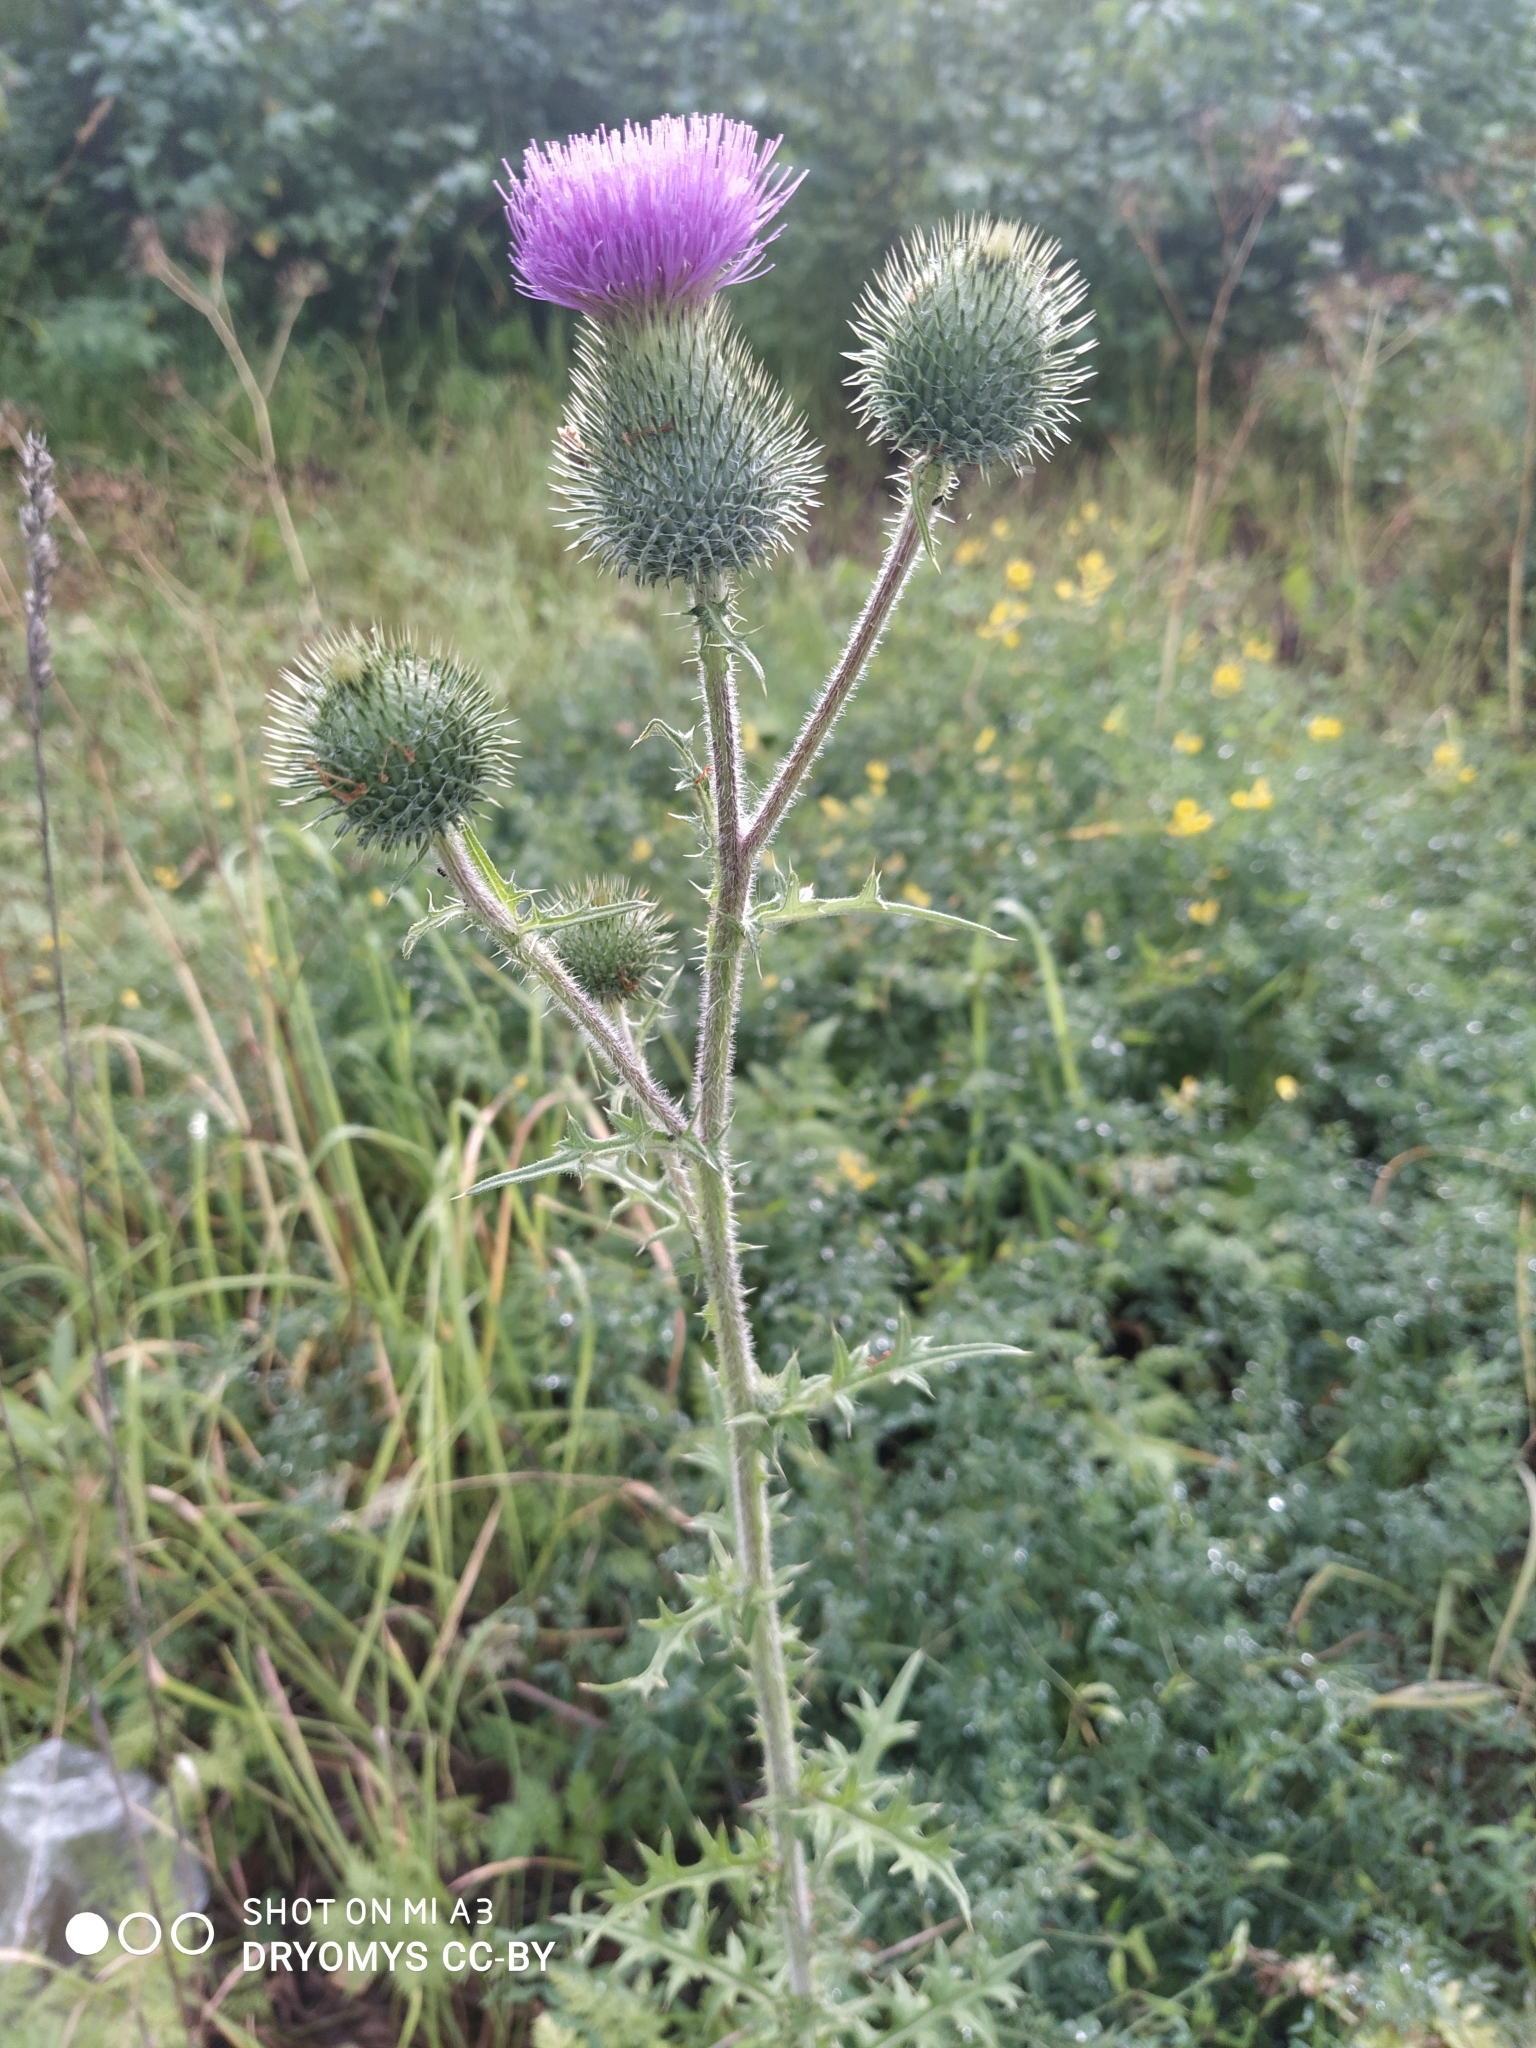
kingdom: Plantae
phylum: Tracheophyta
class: Magnoliopsida
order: Asterales
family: Asteraceae
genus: Cirsium
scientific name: Cirsium vulgare
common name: Bull thistle
